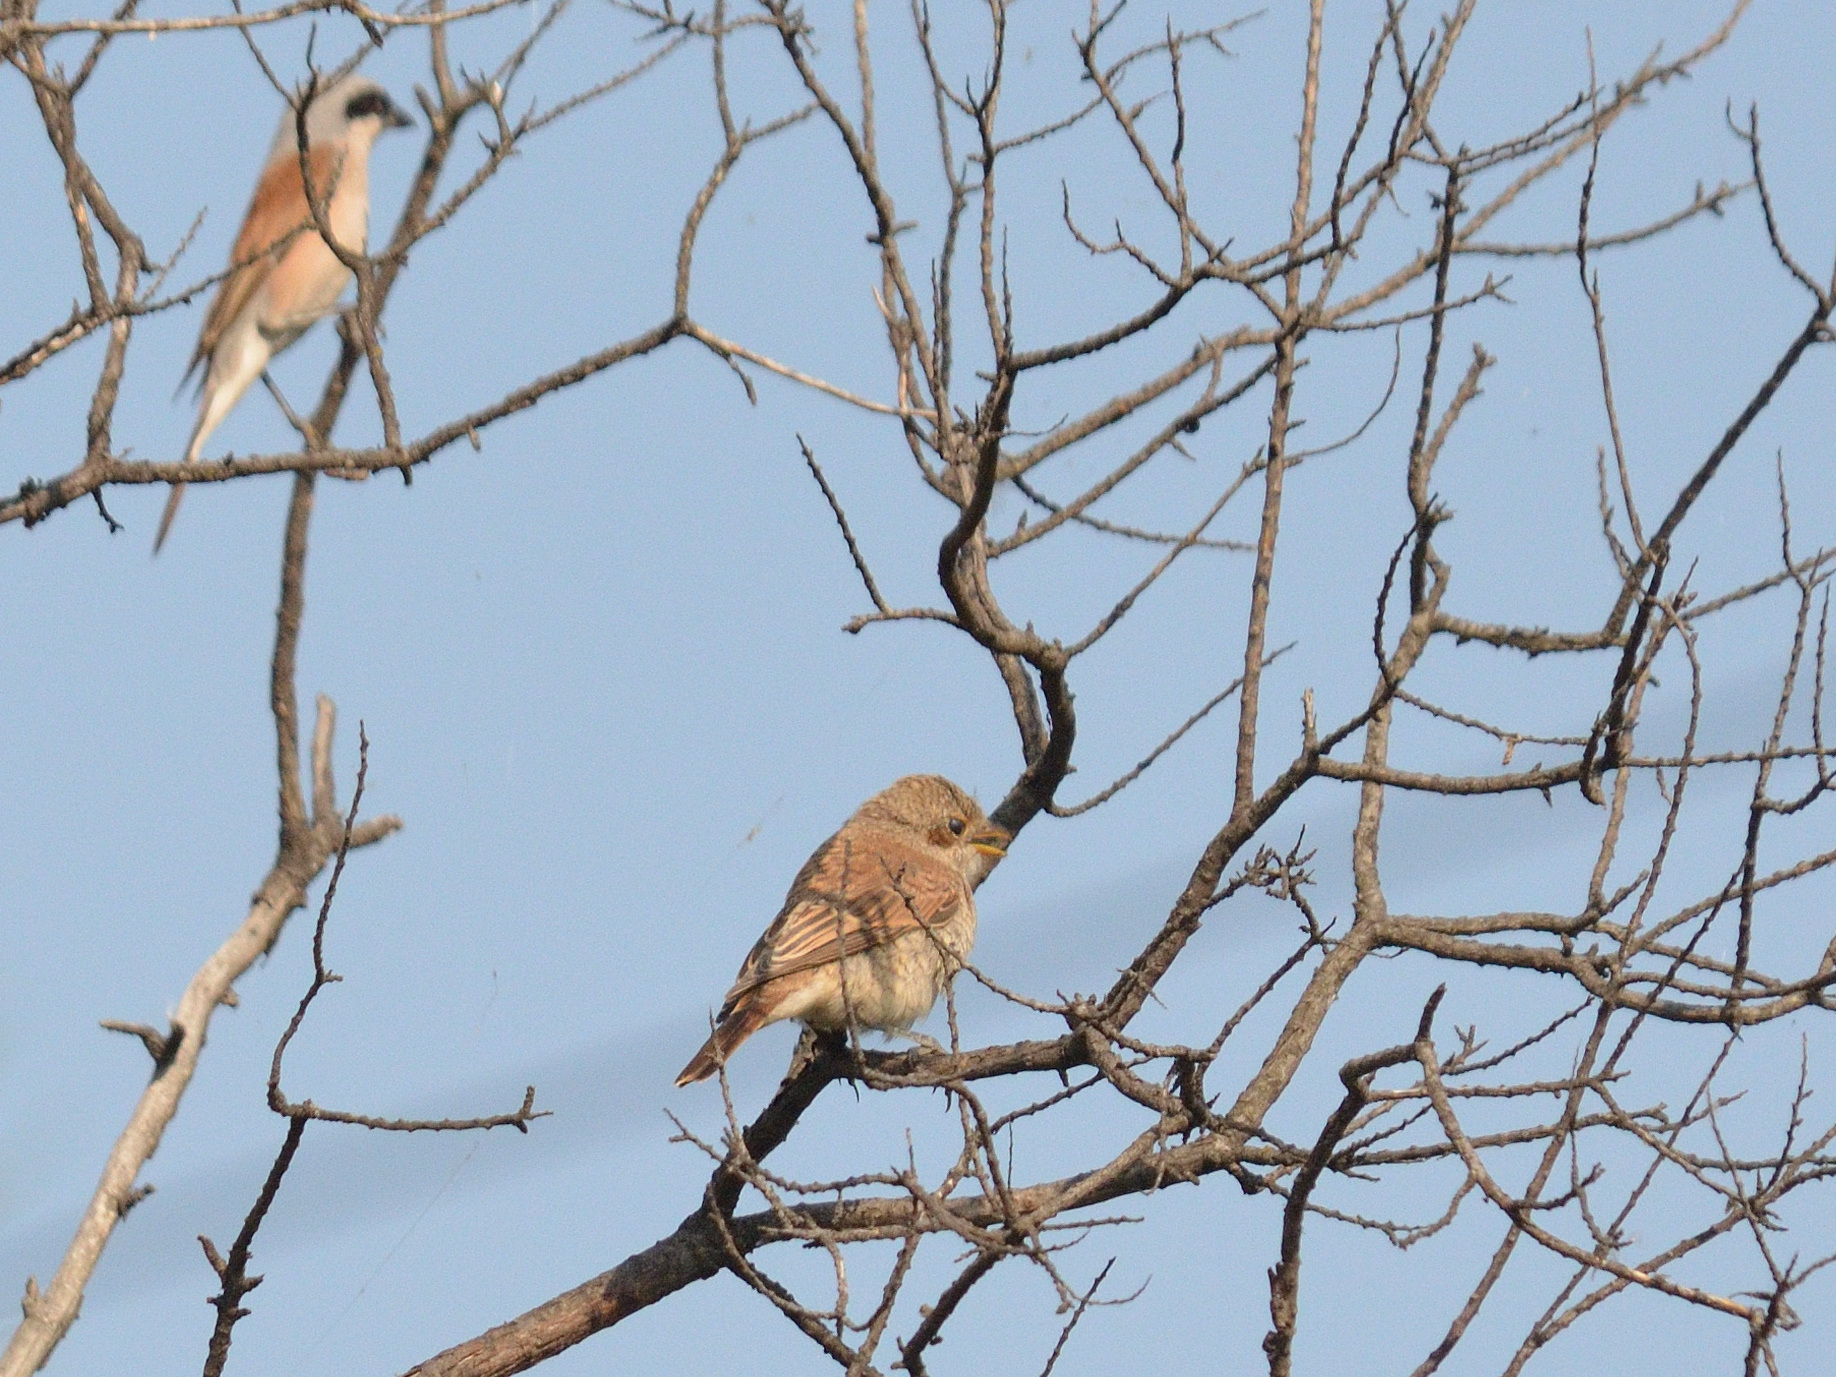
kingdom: Animalia
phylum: Chordata
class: Aves
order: Passeriformes
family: Laniidae
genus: Lanius
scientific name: Lanius collurio
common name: Red-backed shrike
